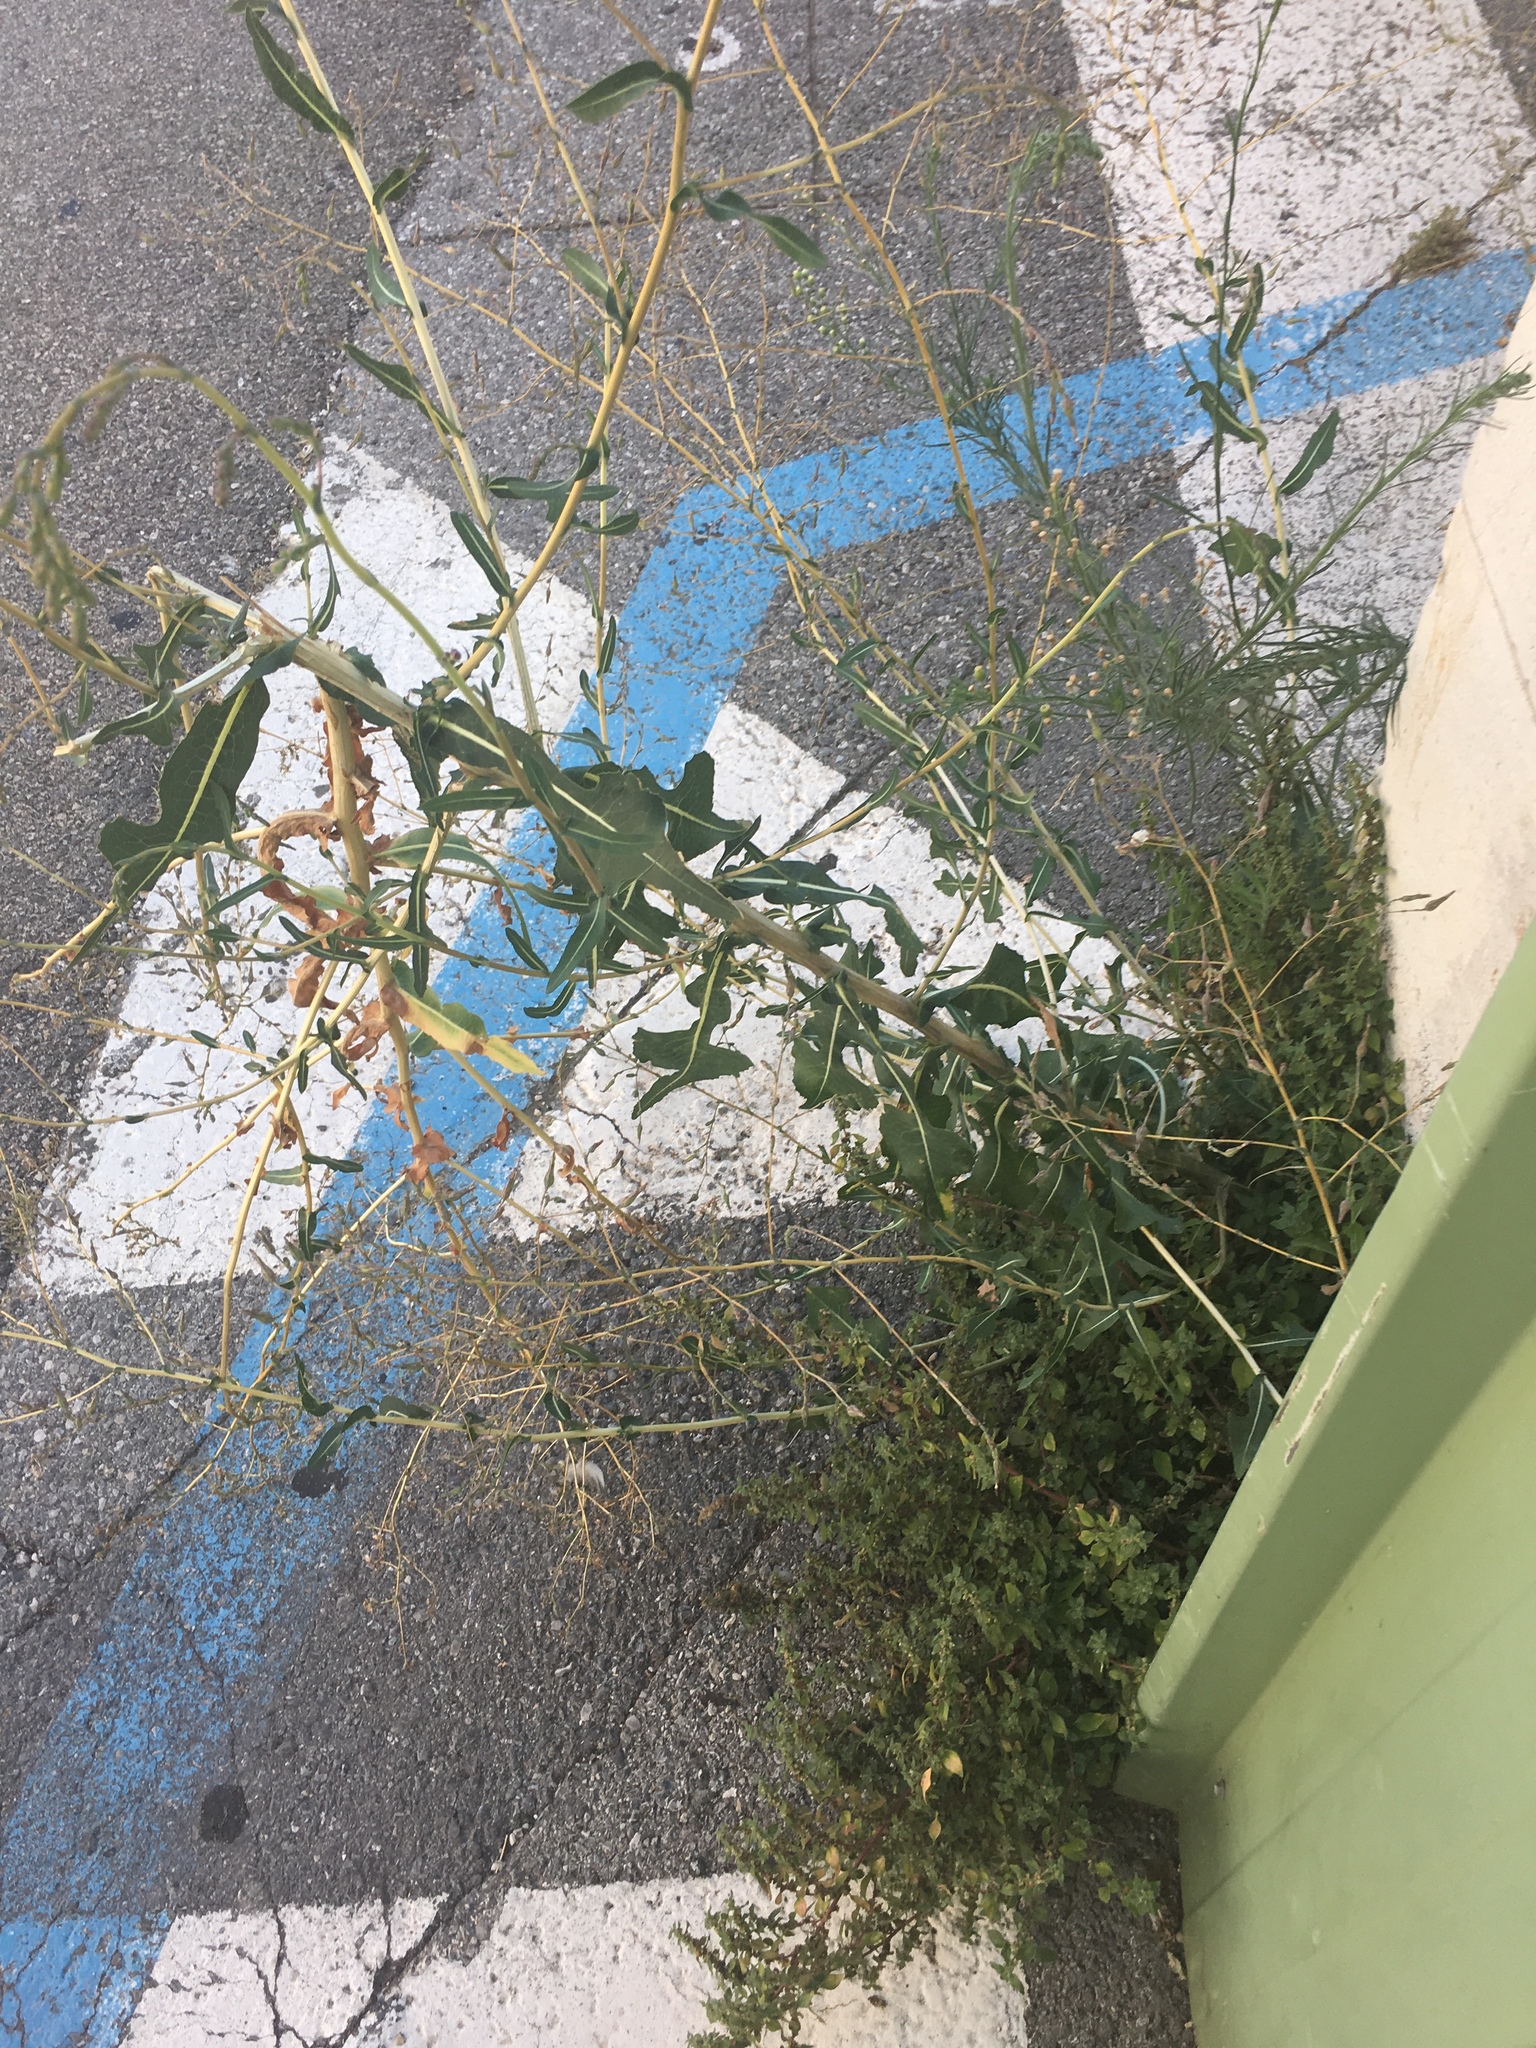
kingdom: Plantae
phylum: Tracheophyta
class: Magnoliopsida
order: Asterales
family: Asteraceae
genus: Lactuca
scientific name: Lactuca serriola
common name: Prickly lettuce
